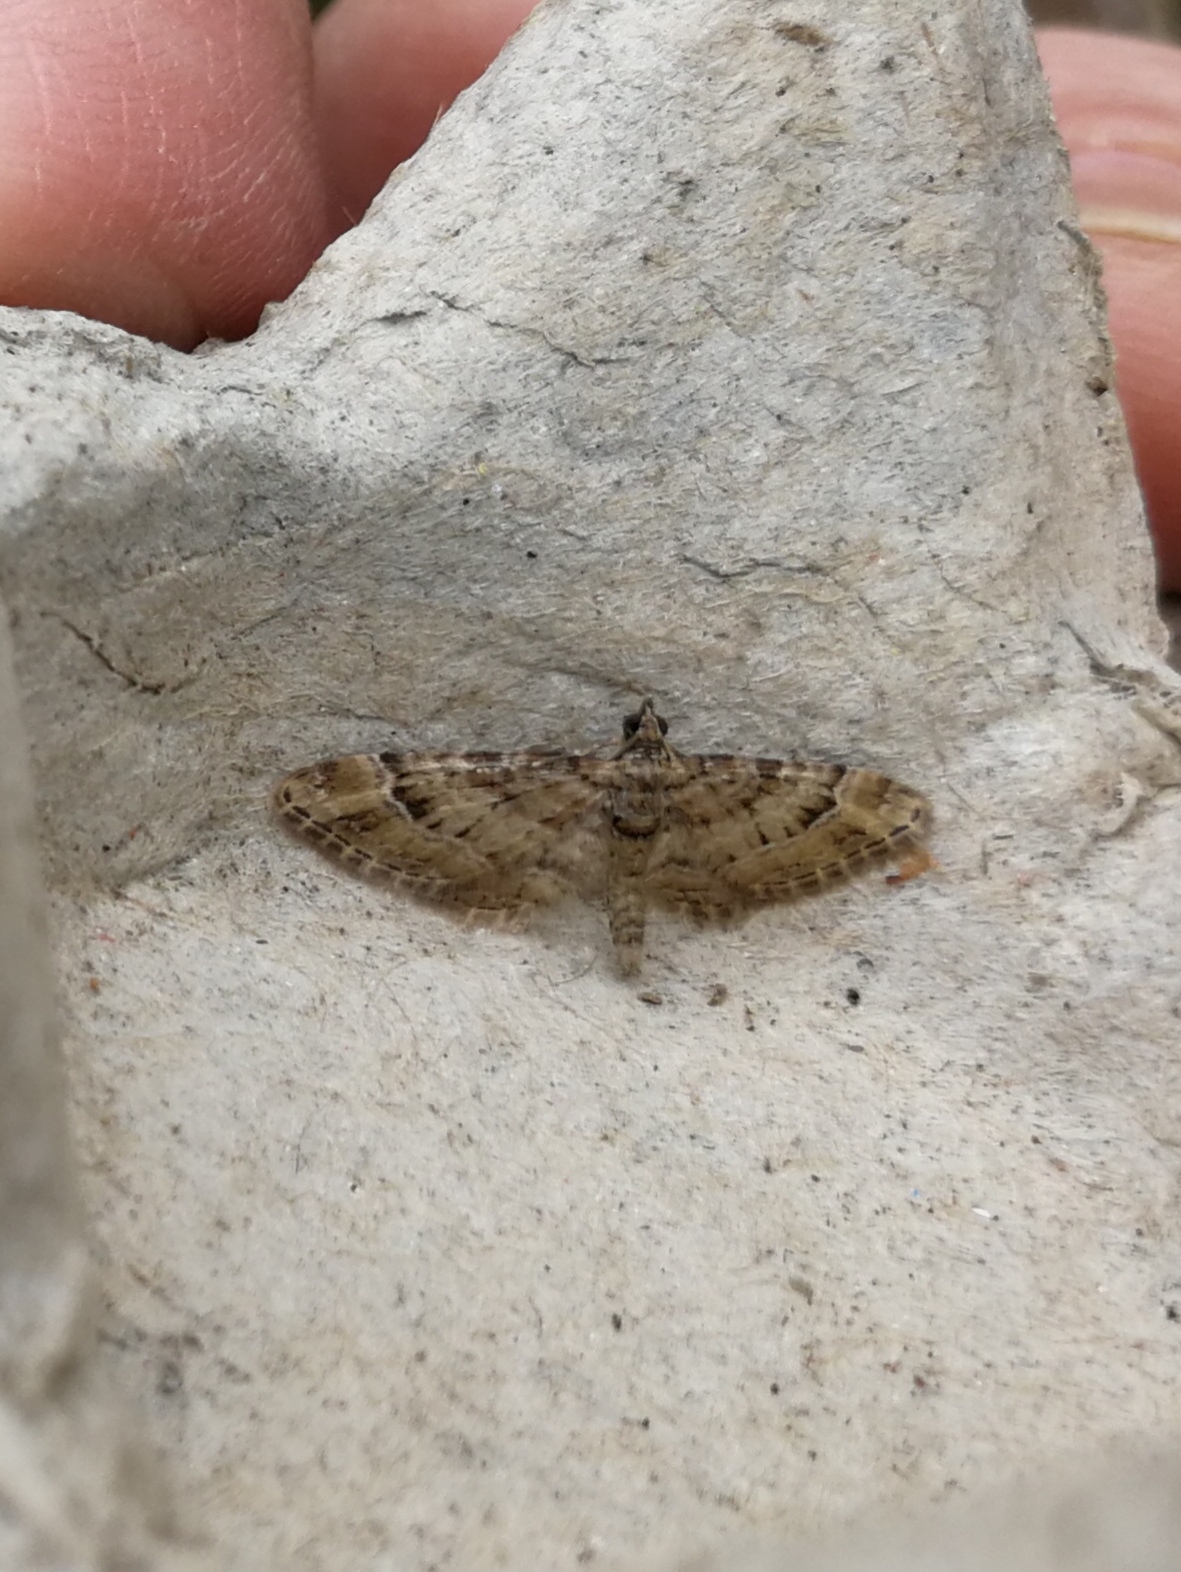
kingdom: Animalia
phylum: Arthropoda
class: Insecta
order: Lepidoptera
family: Geometridae
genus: Gymnoscelis
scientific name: Gymnoscelis rufifasciata
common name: Double-striped pug
